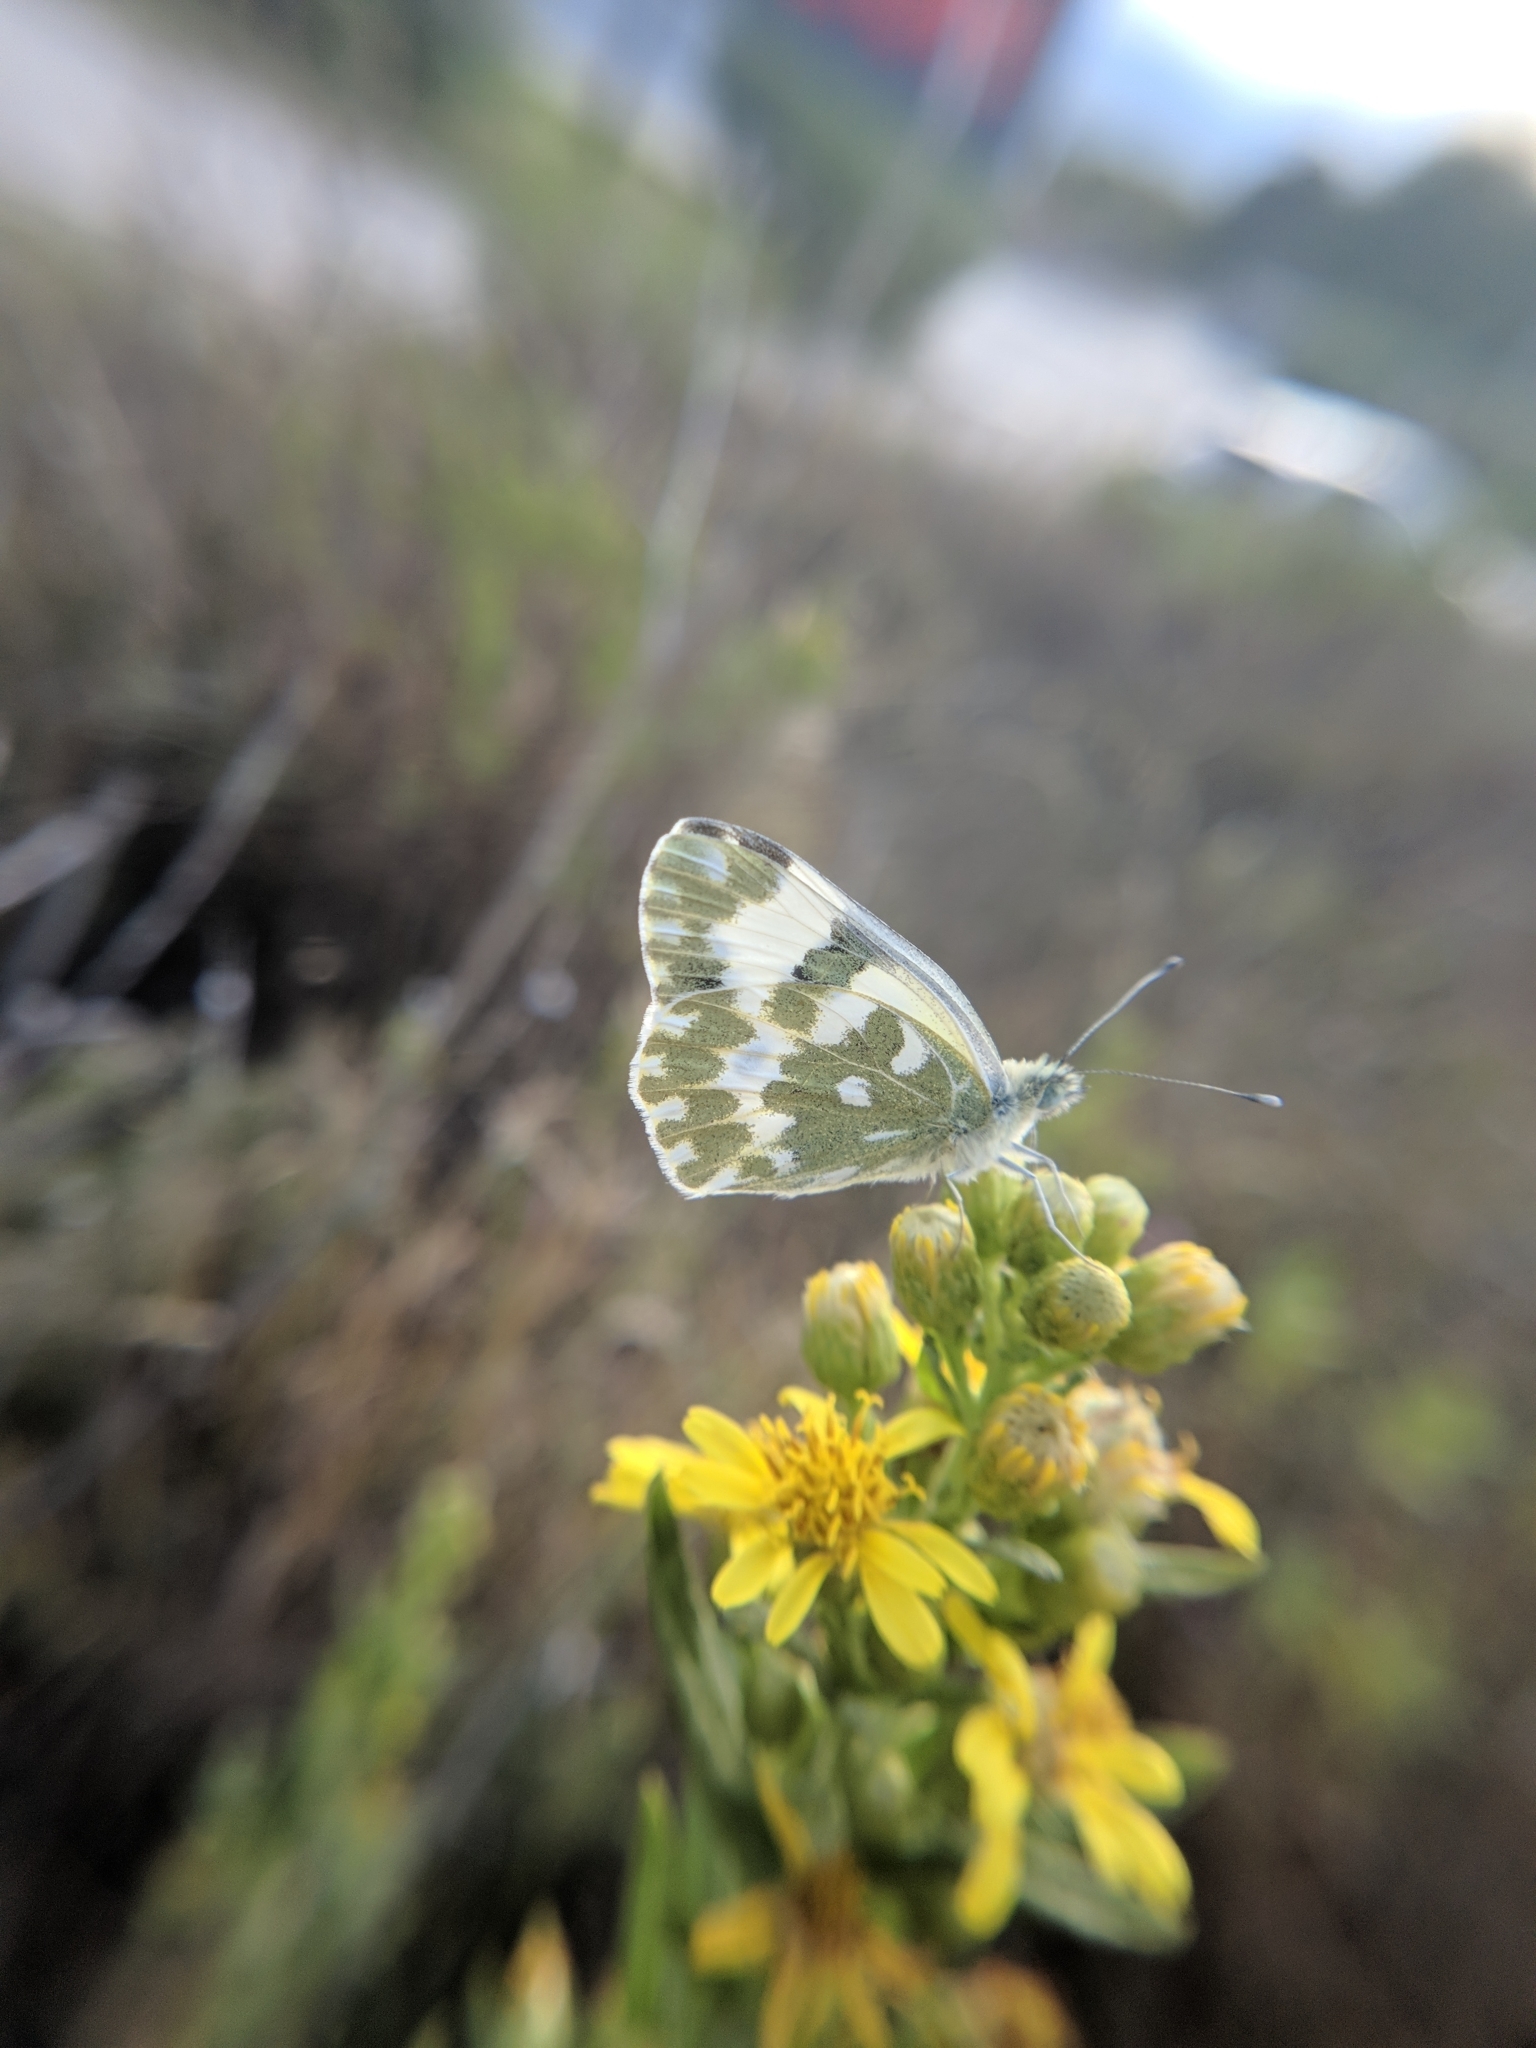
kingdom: Animalia
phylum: Arthropoda
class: Insecta
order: Lepidoptera
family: Pieridae
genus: Pontia
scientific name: Pontia edusa
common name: Eastern bath white
